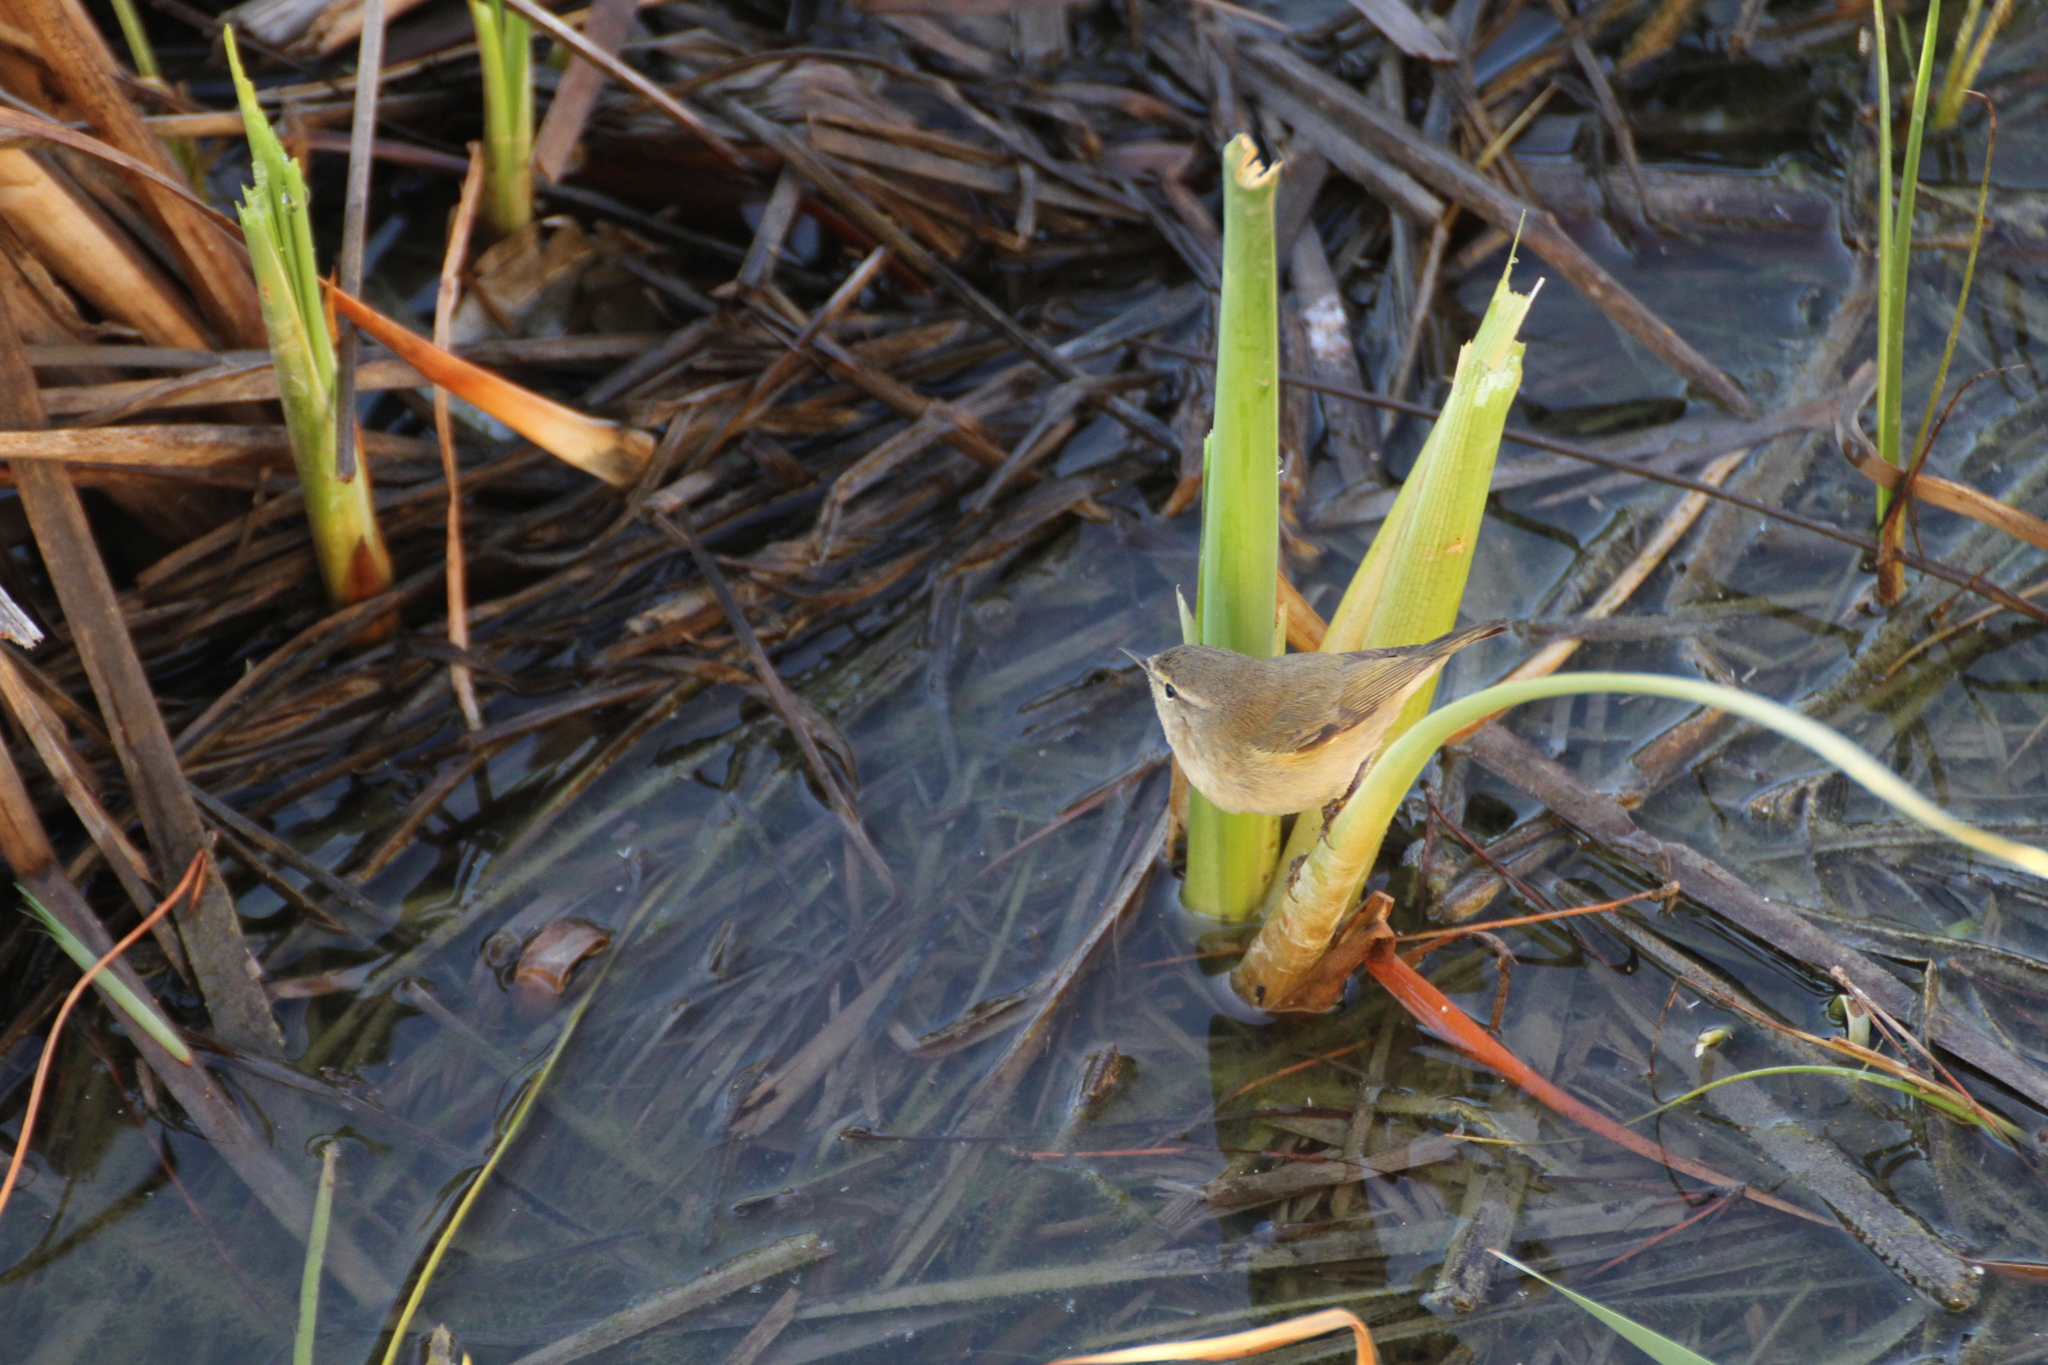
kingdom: Animalia
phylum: Chordata
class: Aves
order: Passeriformes
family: Phylloscopidae
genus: Phylloscopus
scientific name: Phylloscopus collybita
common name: Common chiffchaff
